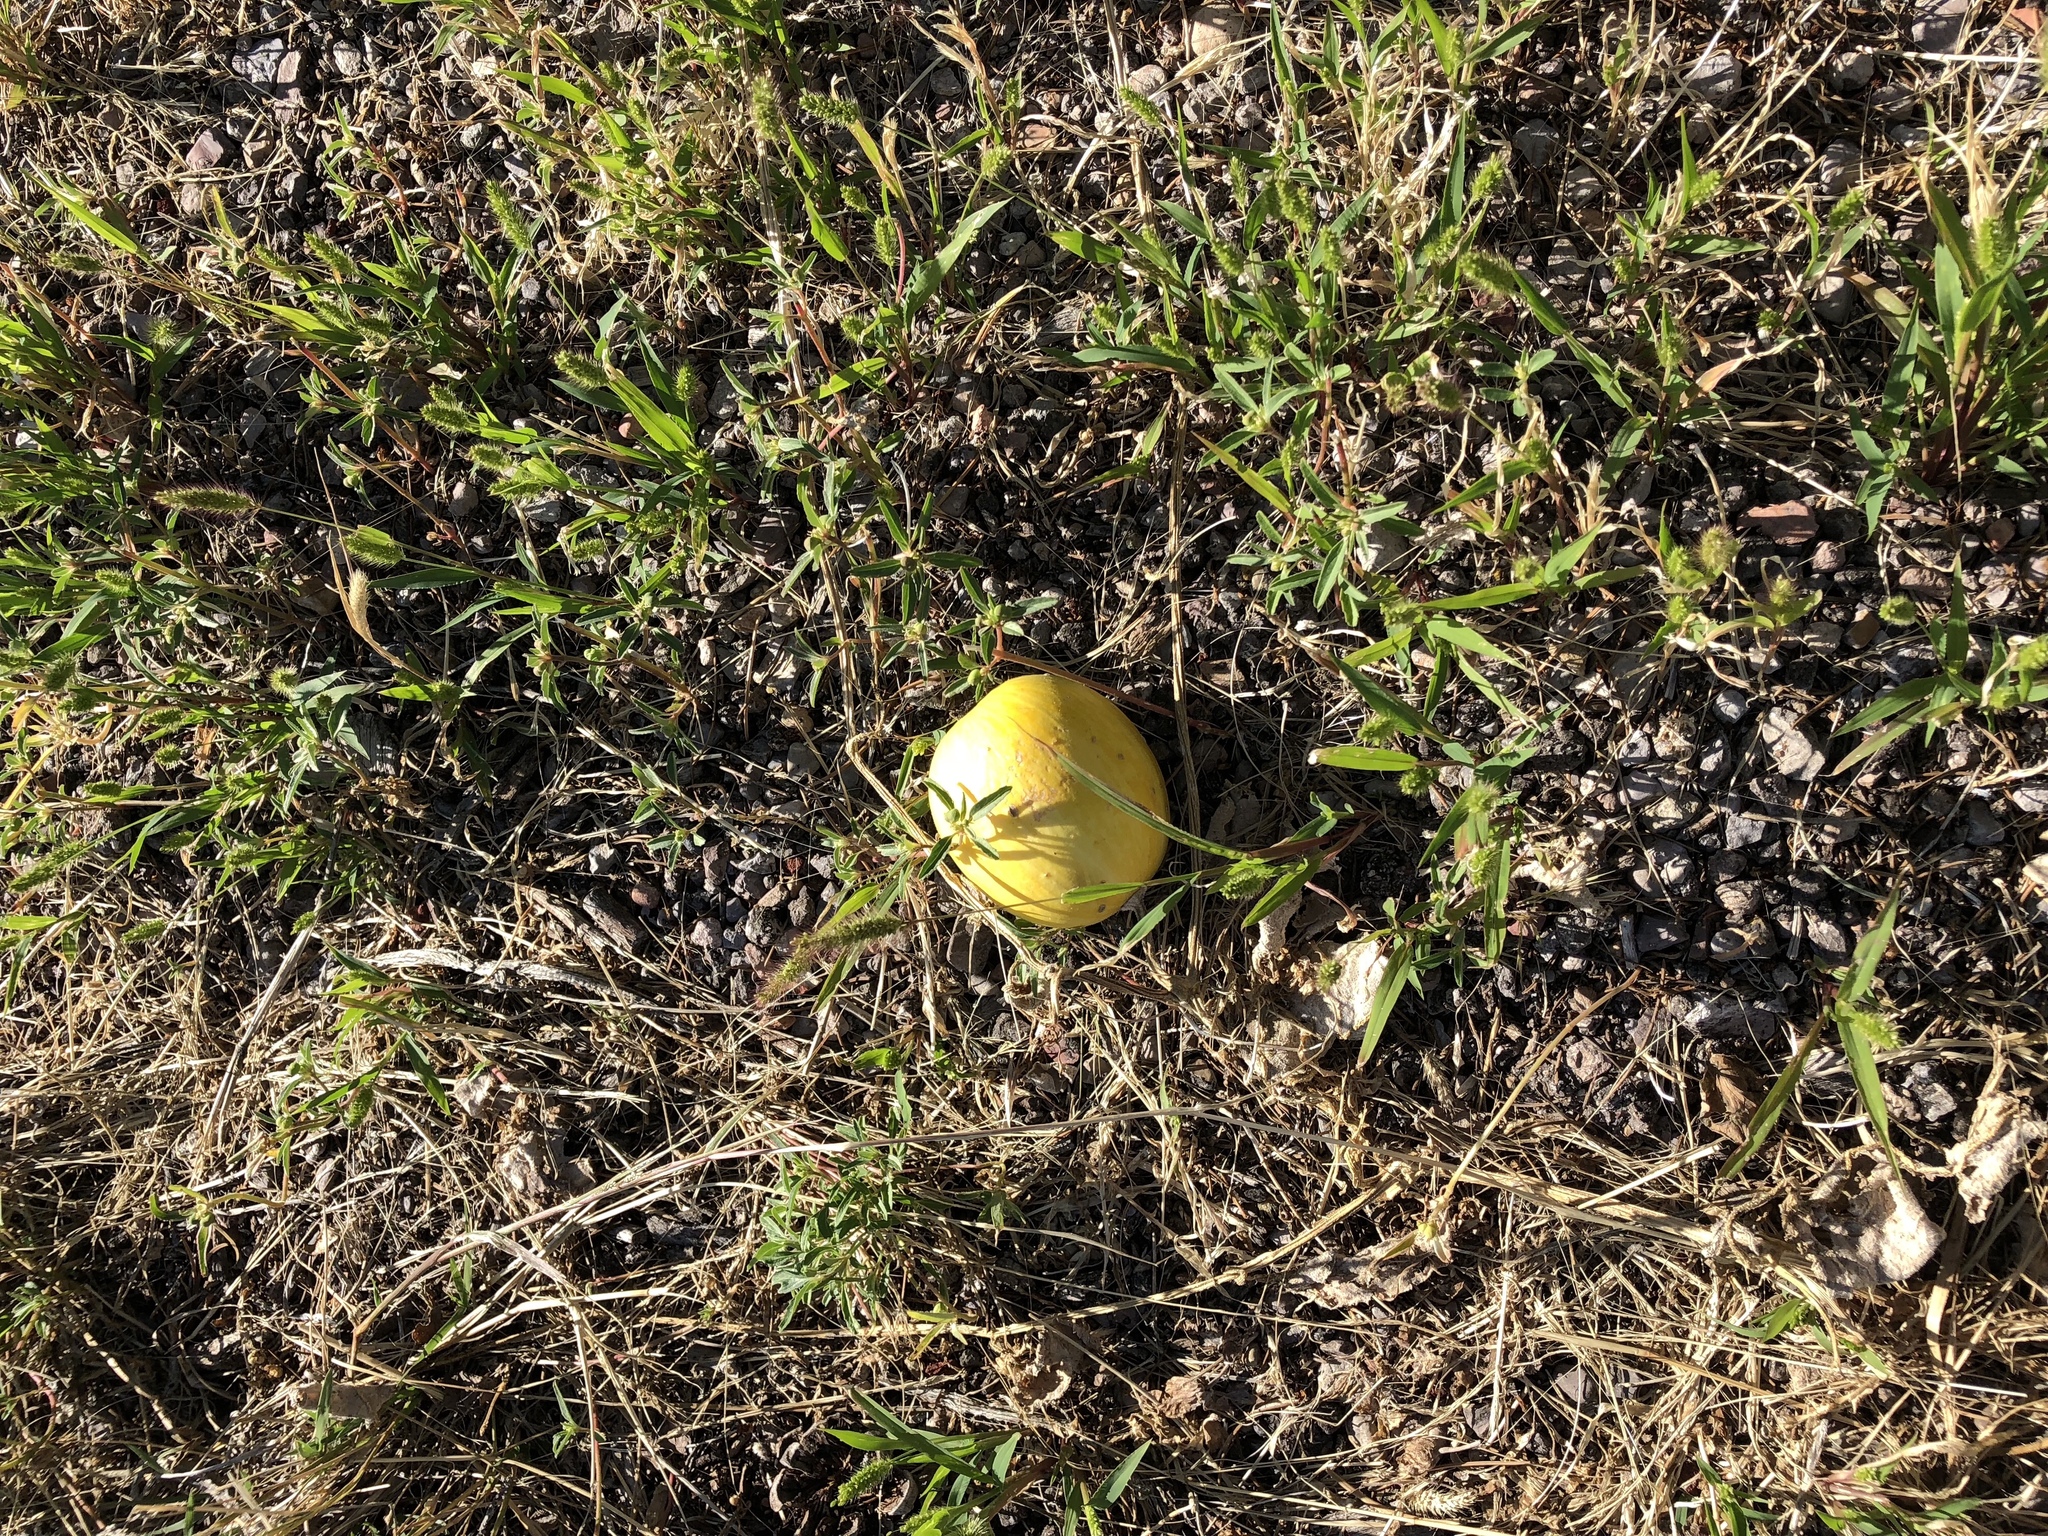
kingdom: Plantae
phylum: Tracheophyta
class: Magnoliopsida
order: Cucurbitales
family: Cucurbitaceae
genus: Cucurbita
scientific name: Cucurbita foetidissima
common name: Buffalo gourd
